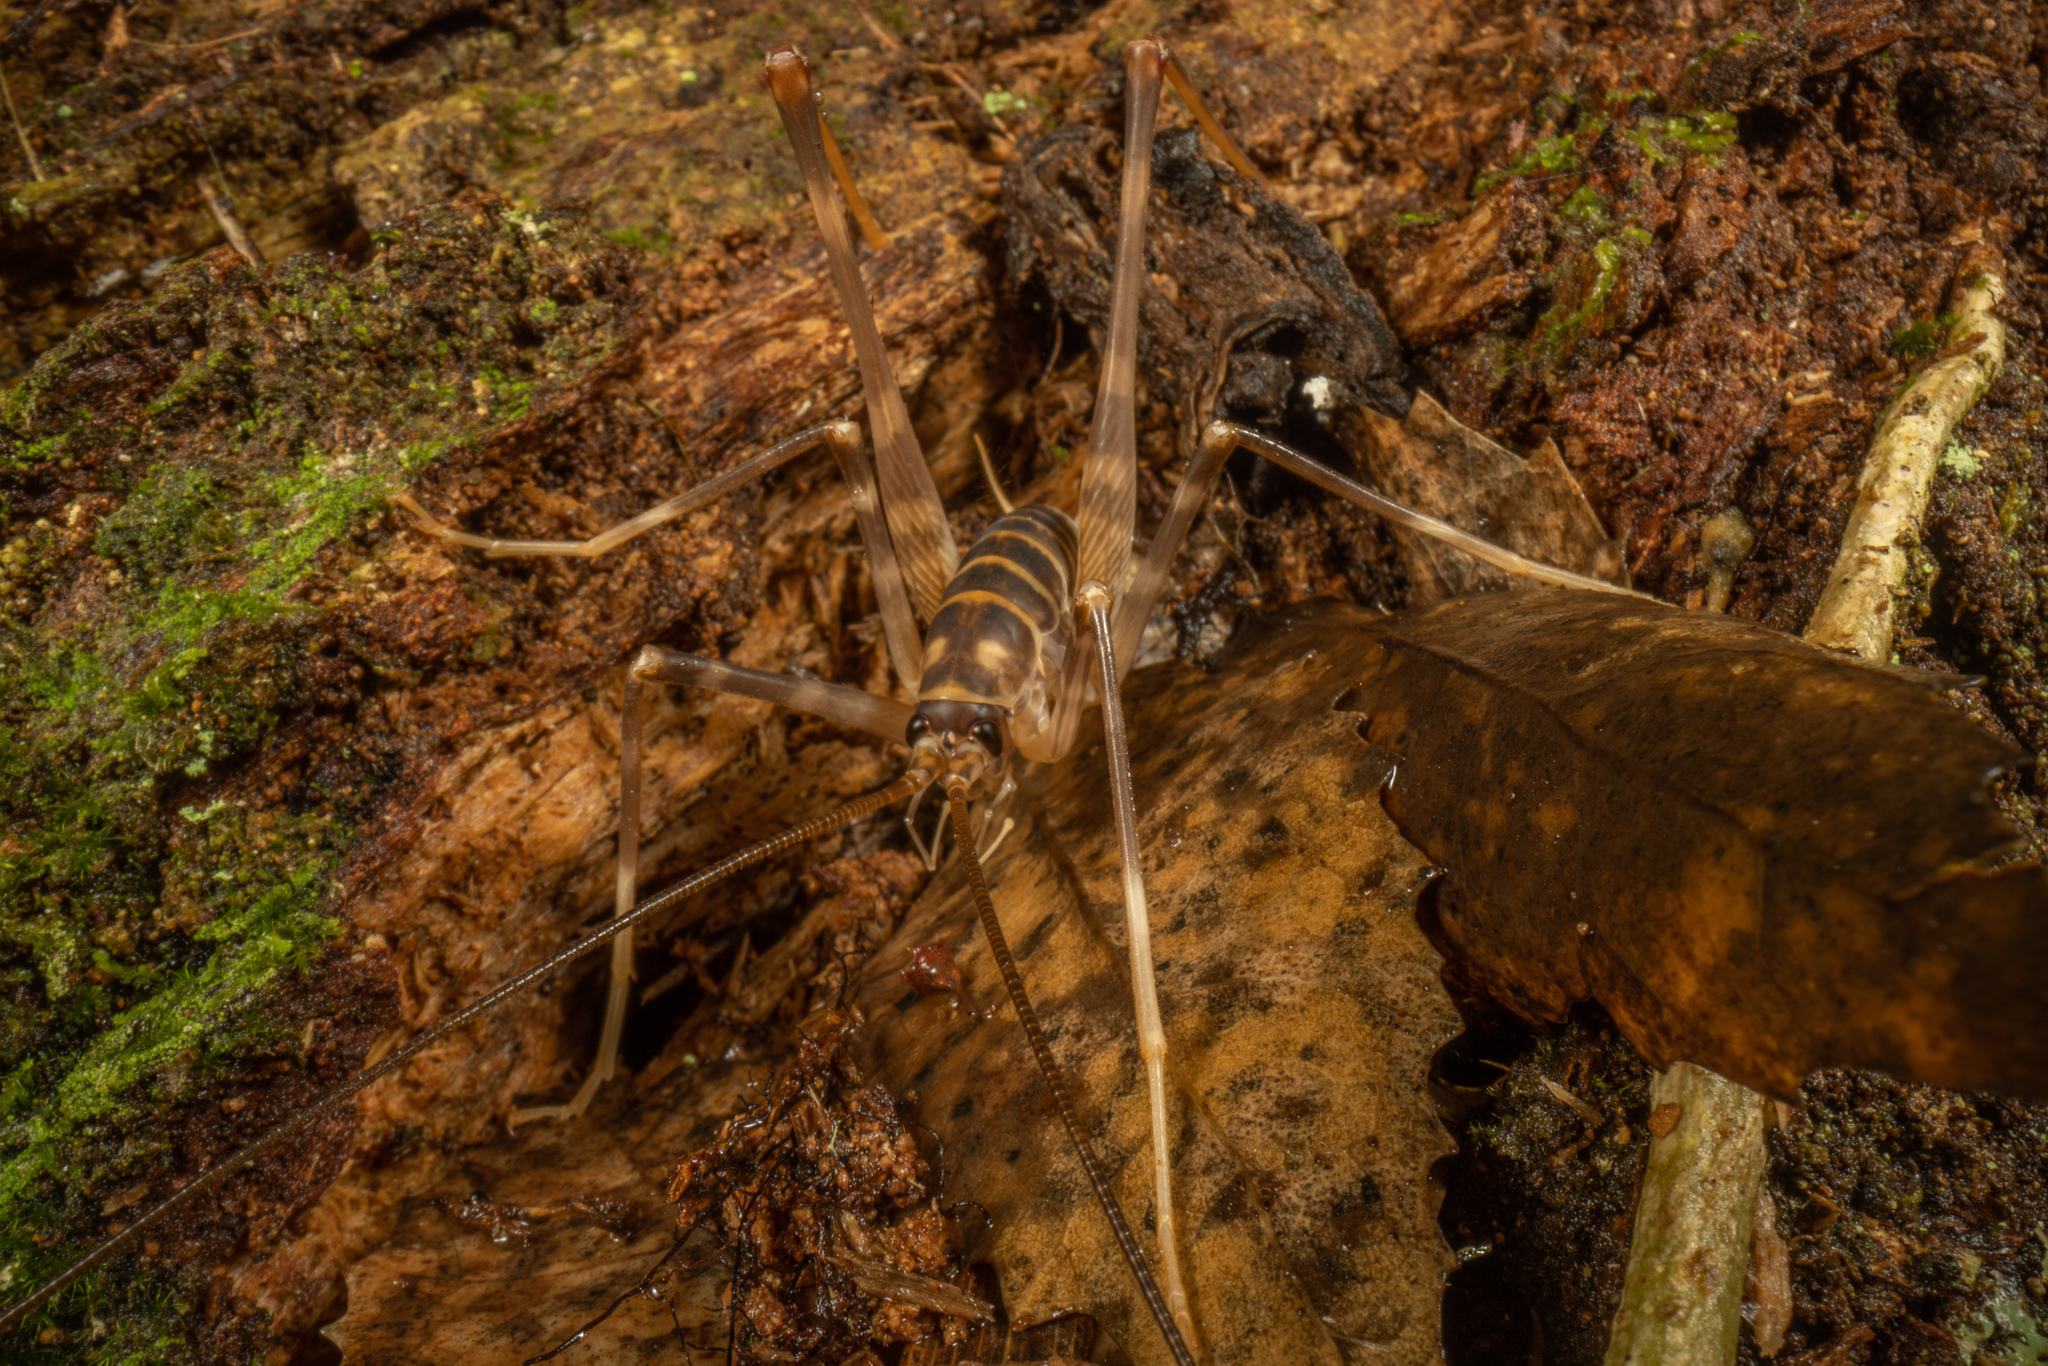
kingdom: Animalia
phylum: Arthropoda
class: Insecta
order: Orthoptera
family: Rhaphidophoridae
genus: Pachyrhamma
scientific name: Pachyrhamma acanthocera
